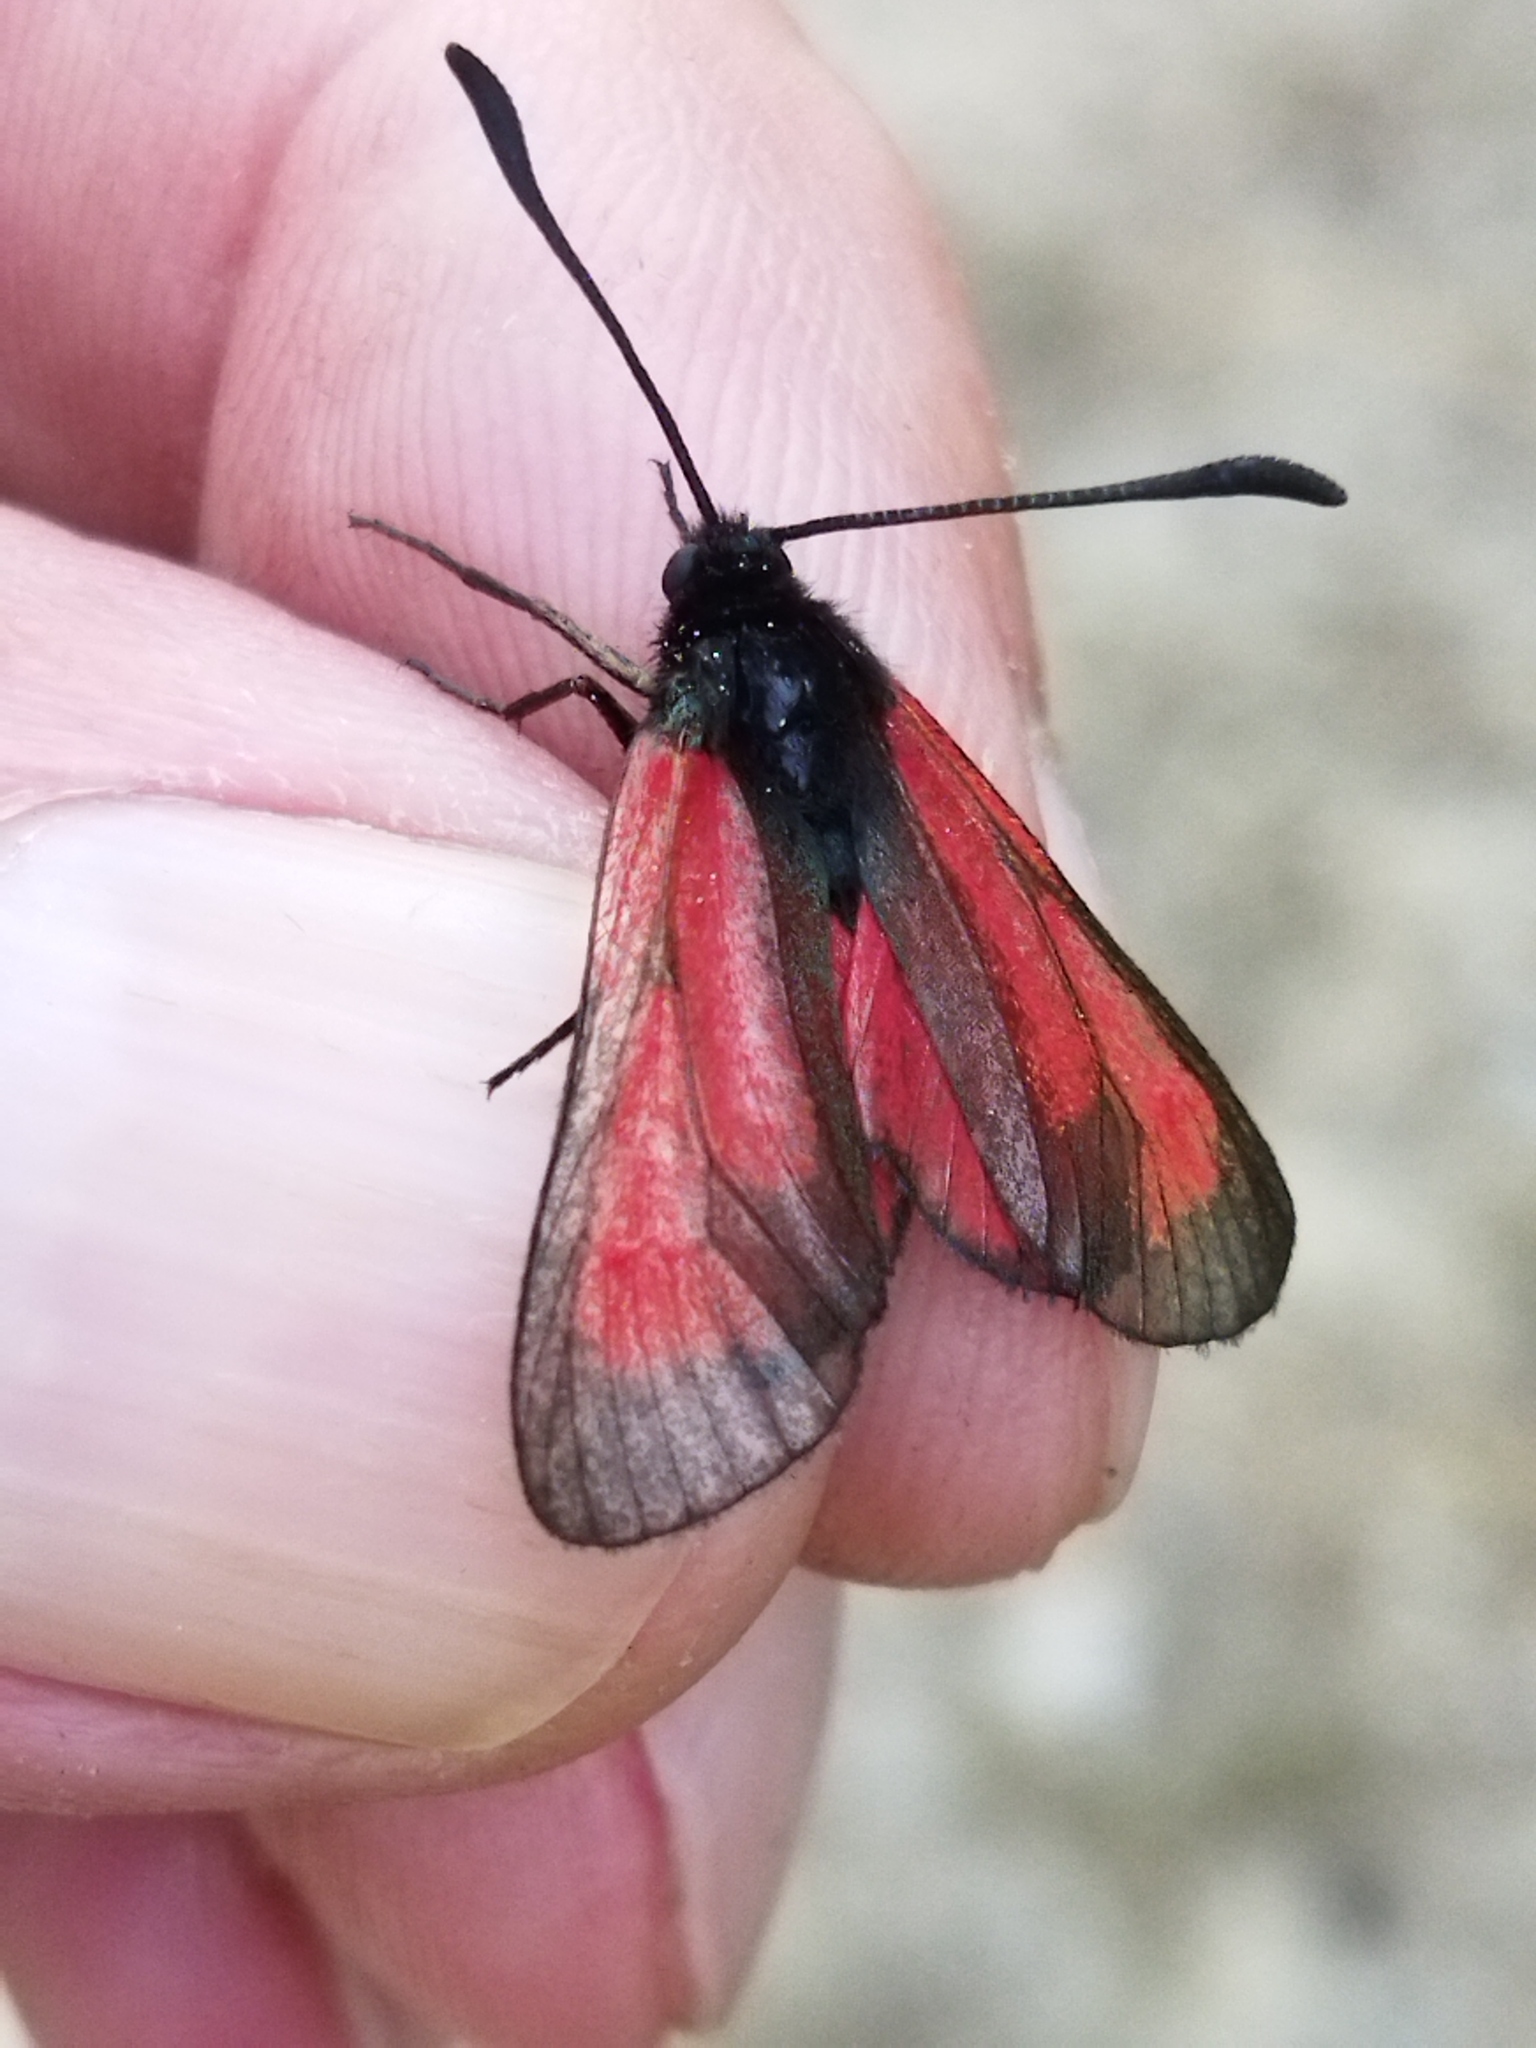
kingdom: Animalia
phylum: Arthropoda
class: Insecta
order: Lepidoptera
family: Zygaenidae
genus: Zygaena
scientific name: Zygaena
